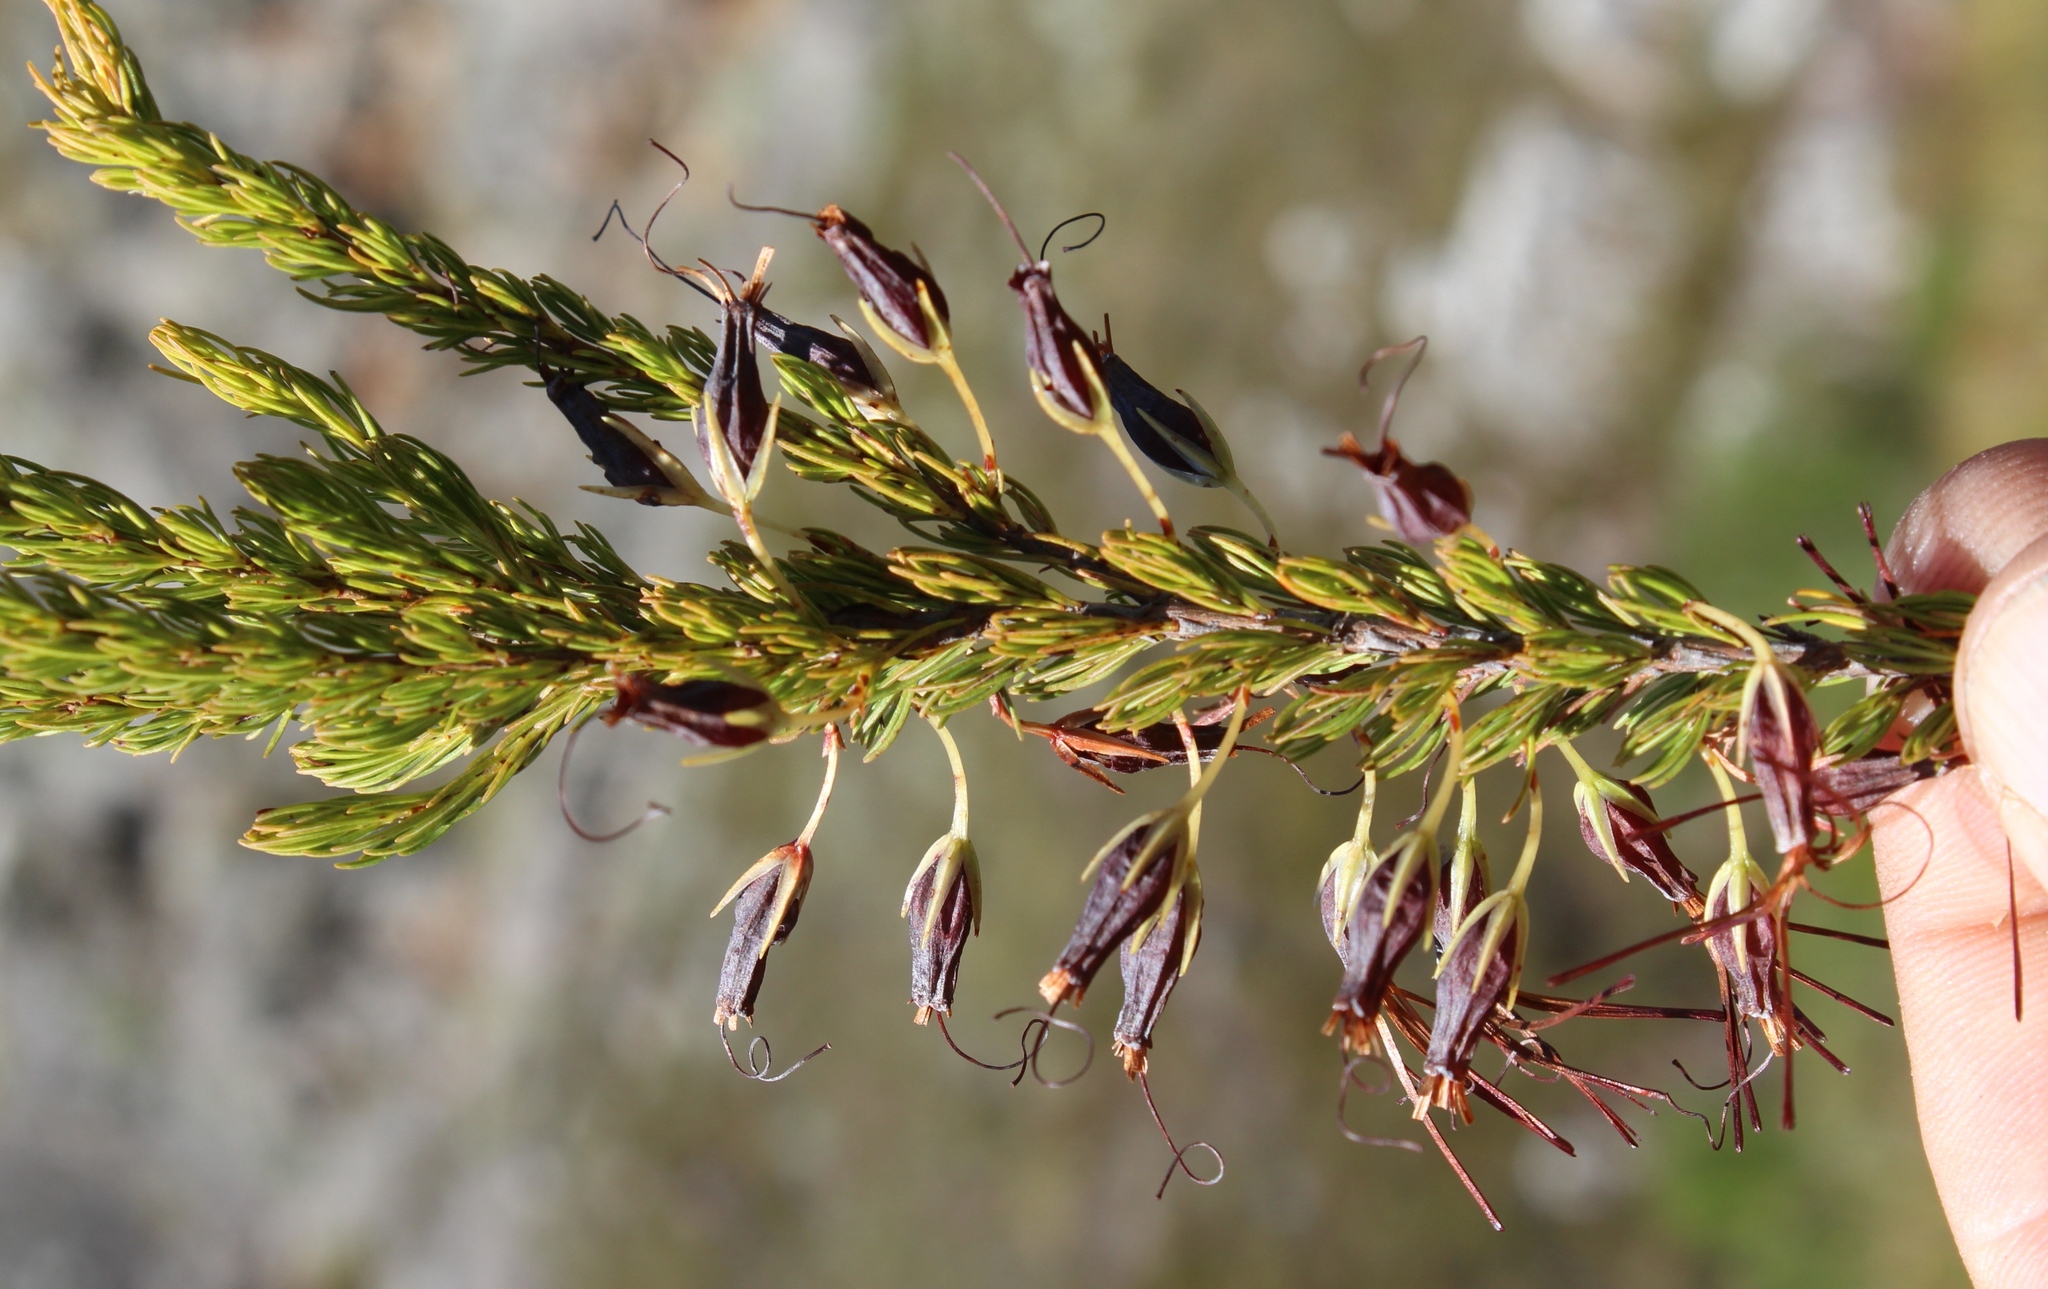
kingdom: Plantae
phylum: Tracheophyta
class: Magnoliopsida
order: Ericales
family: Ericaceae
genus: Erica
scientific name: Erica plukenetii
